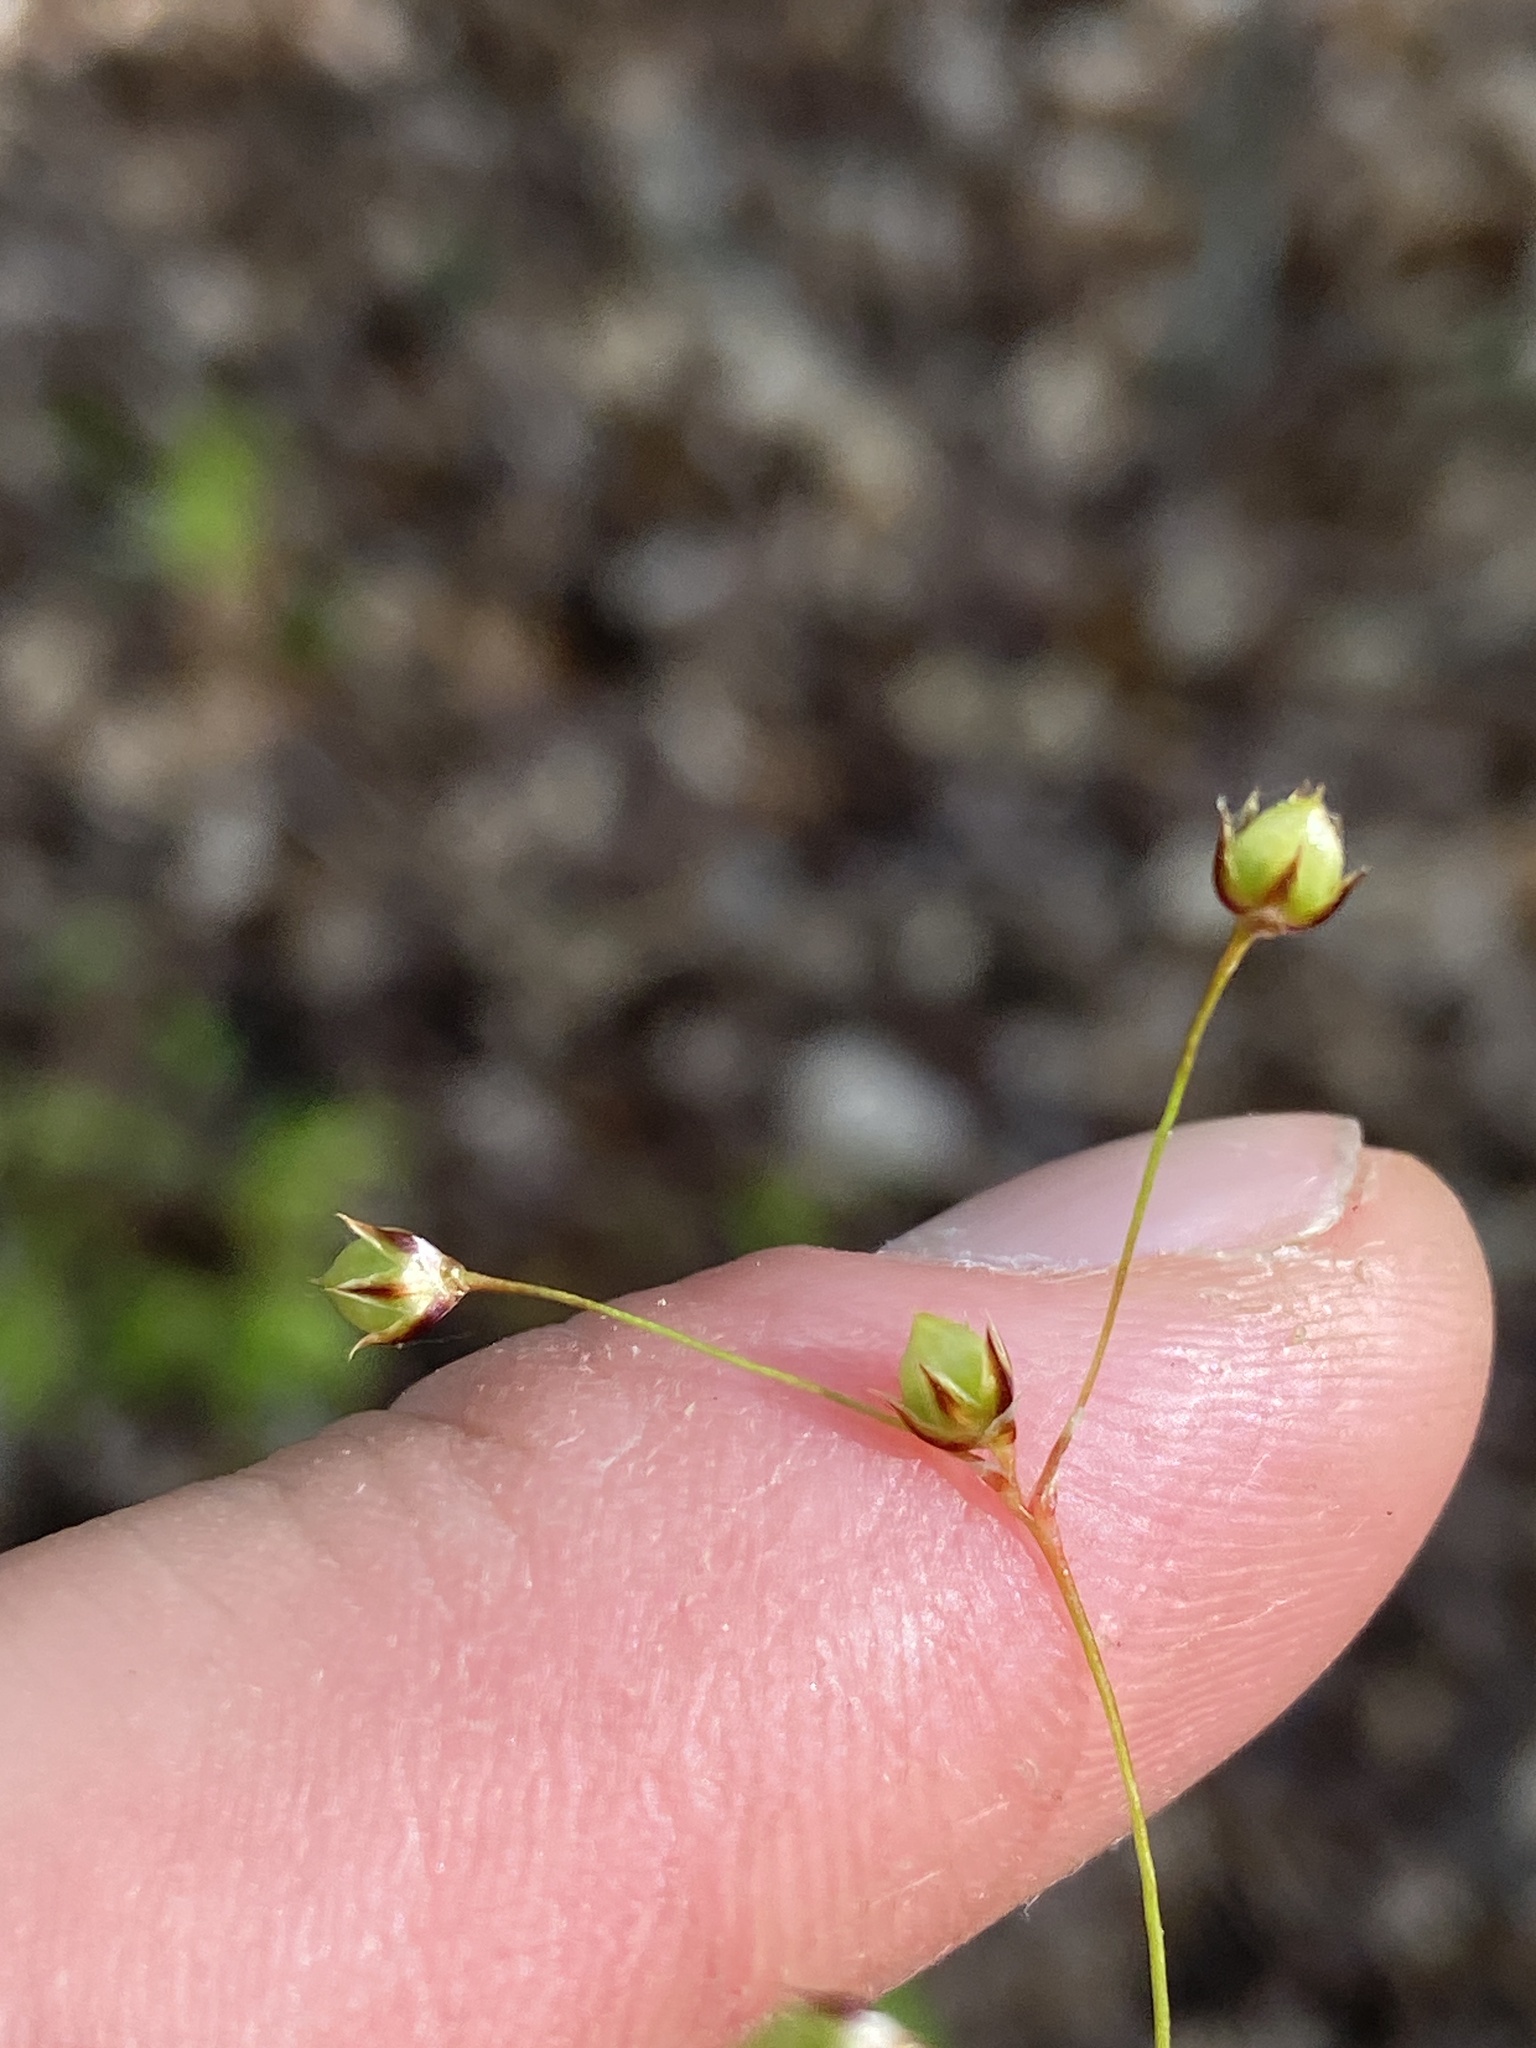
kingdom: Plantae
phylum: Tracheophyta
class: Liliopsida
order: Poales
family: Juncaceae
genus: Luzula
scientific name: Luzula acuminata
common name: Hairy woodrush
